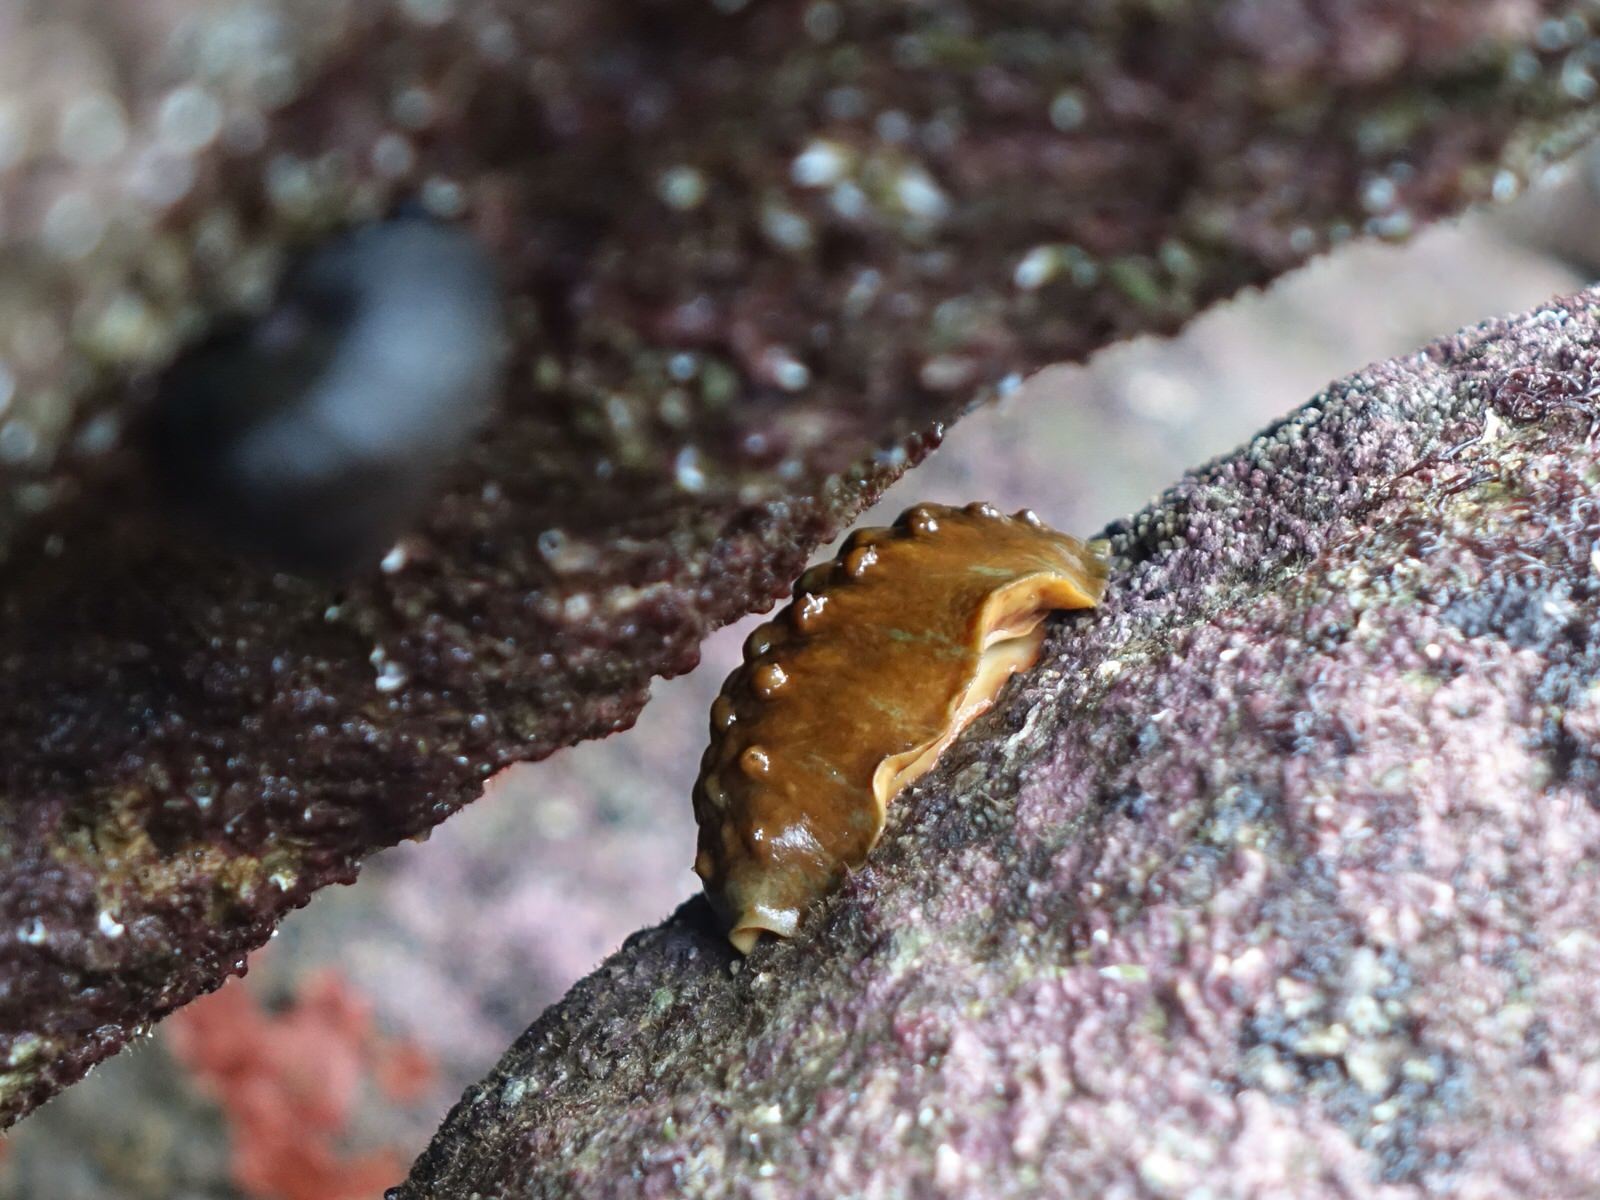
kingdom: Animalia
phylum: Mollusca
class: Polyplacophora
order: Chitonida
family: Acanthochitonidae
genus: Cryptoconchus
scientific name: Cryptoconchus porosus
